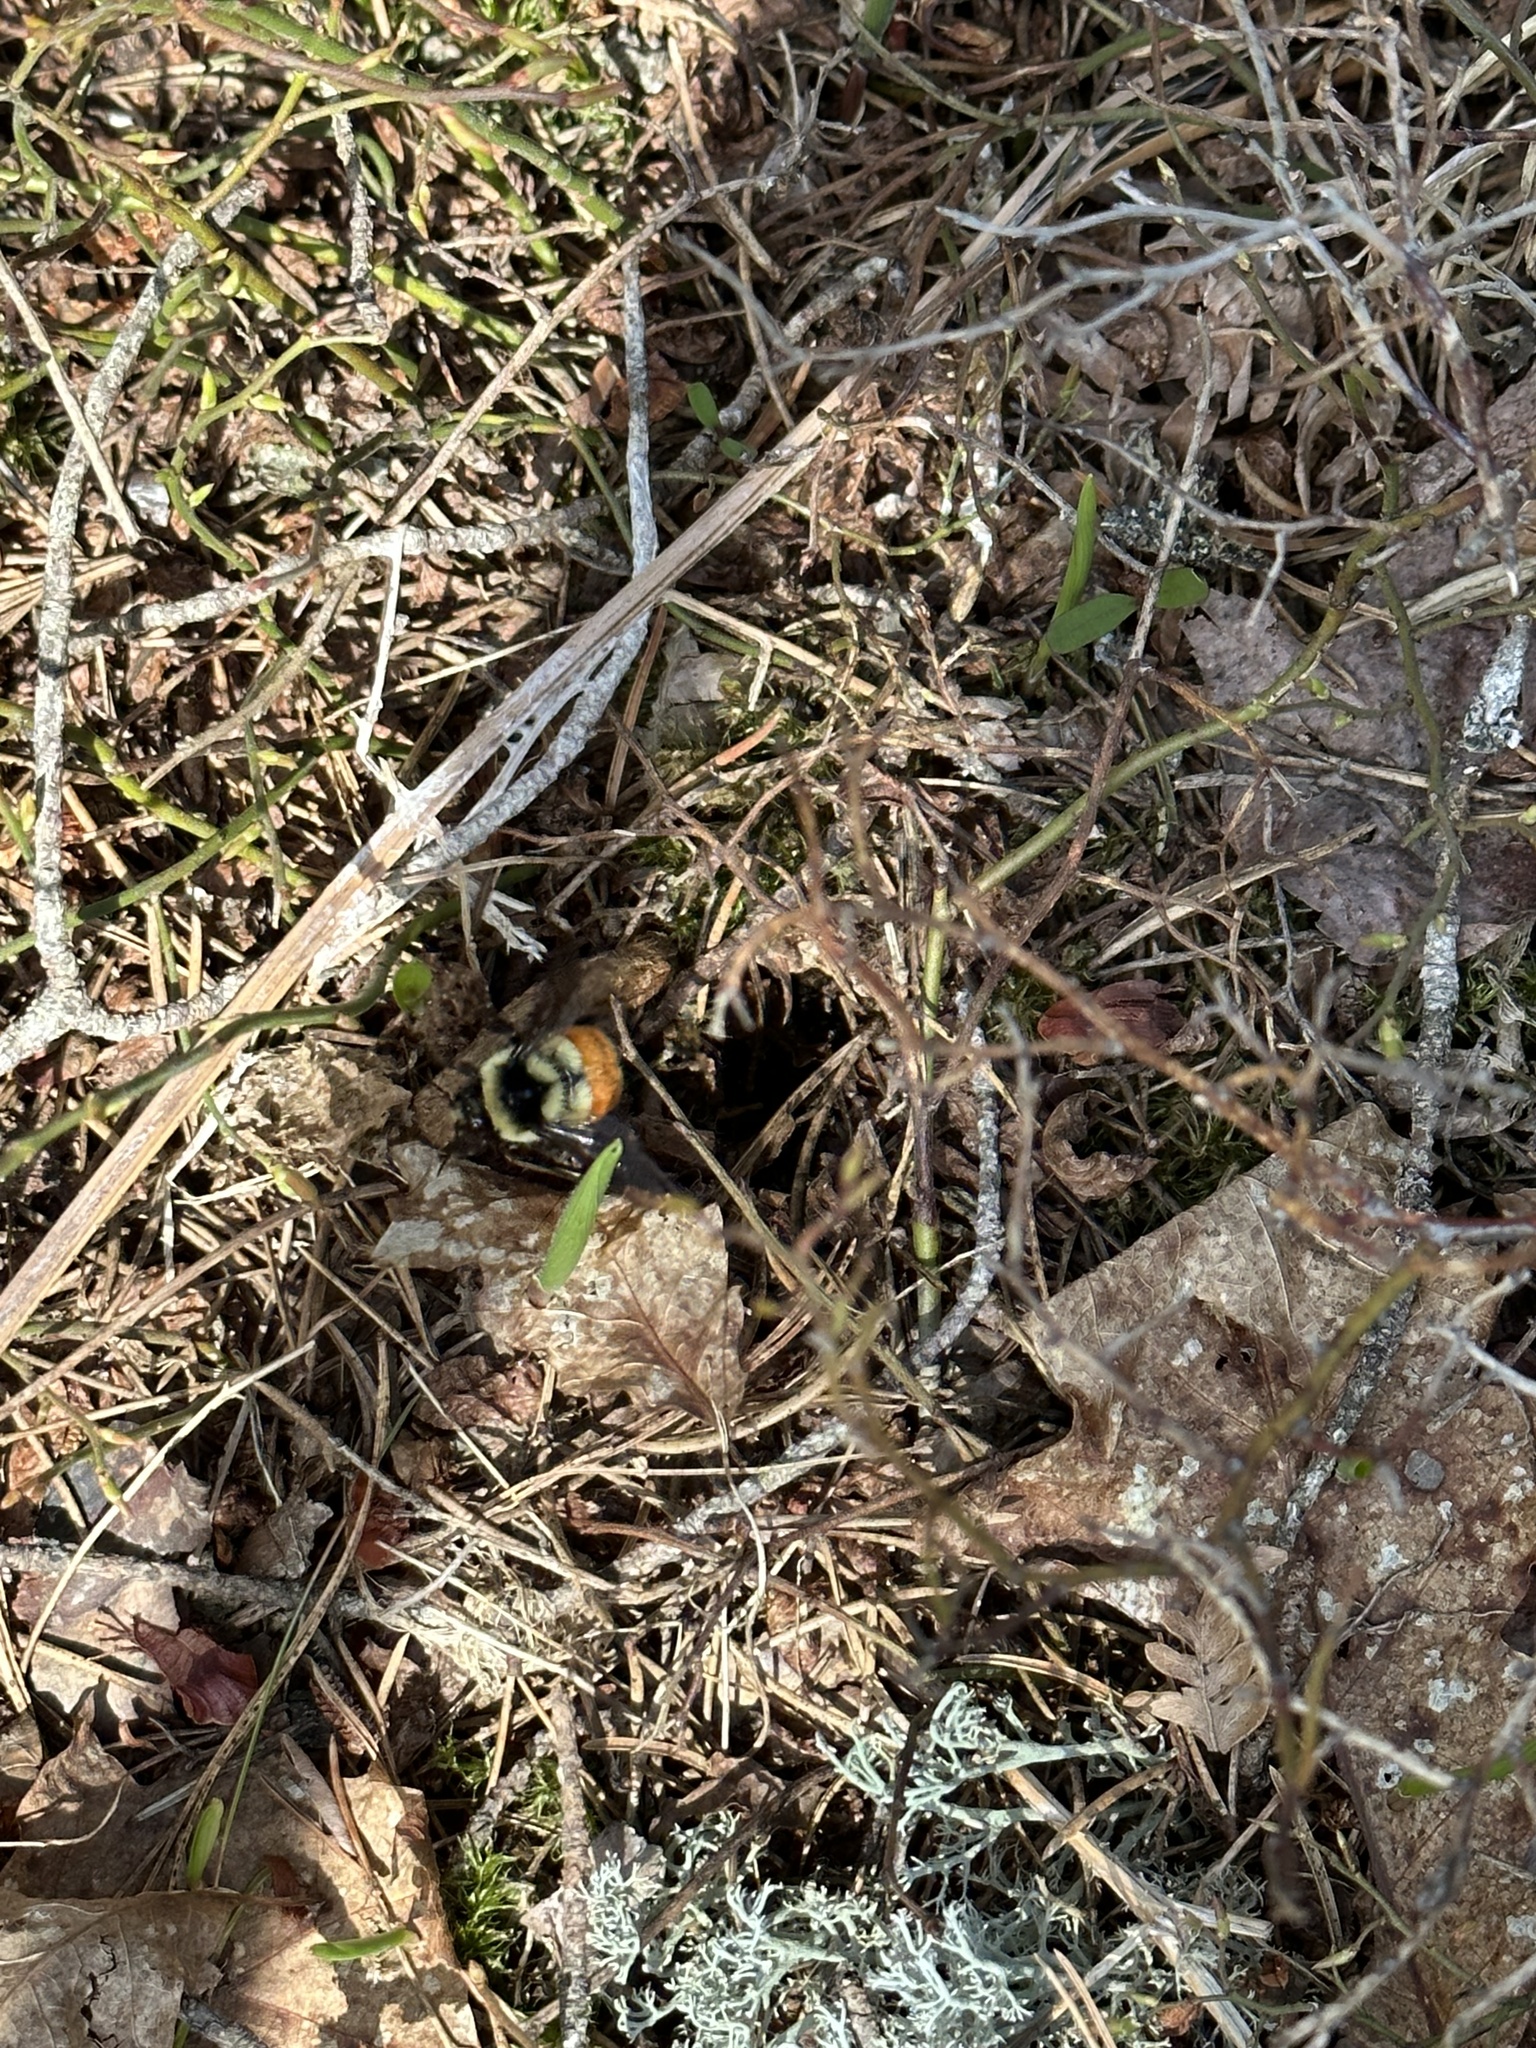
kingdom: Animalia
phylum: Arthropoda
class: Insecta
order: Hymenoptera
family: Apidae
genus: Bombus
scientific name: Bombus ternarius
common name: Tri-colored bumble bee
